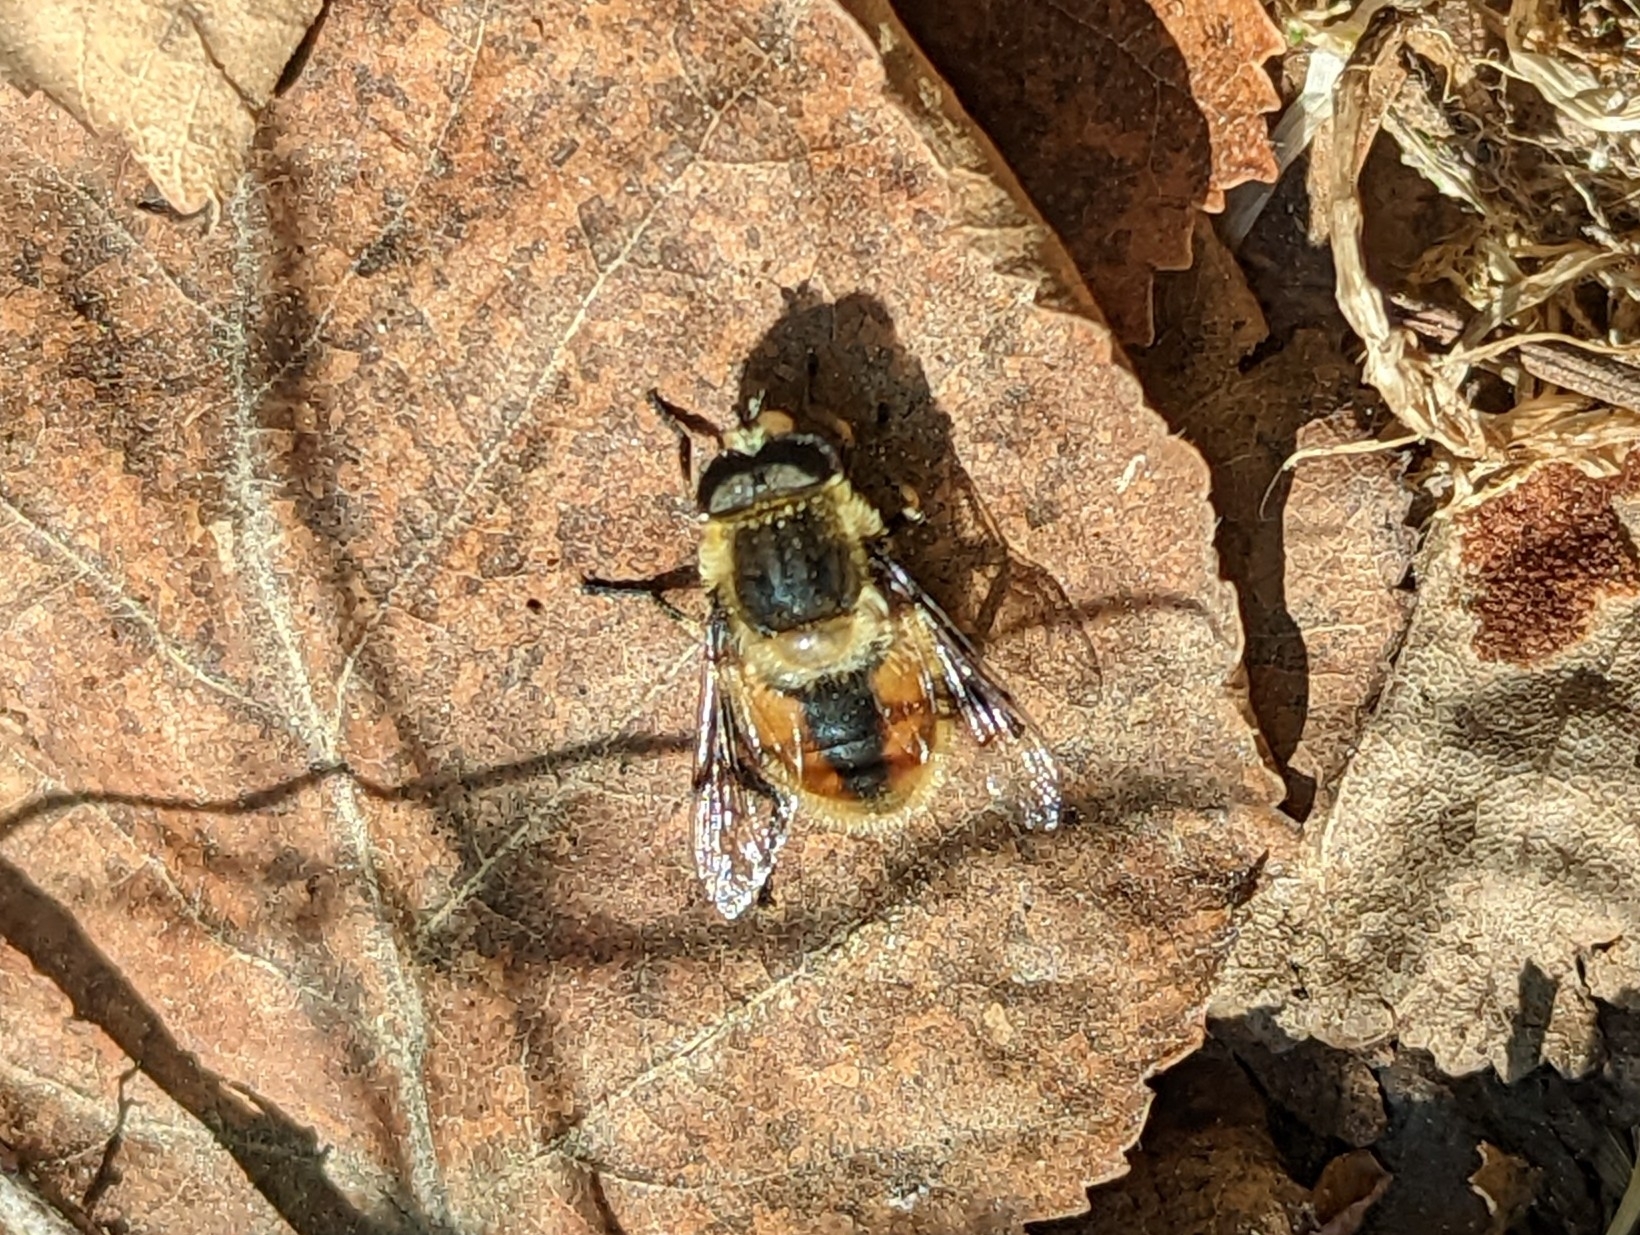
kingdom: Animalia
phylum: Arthropoda
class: Insecta
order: Diptera
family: Syrphidae
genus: Eristalis
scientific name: Eristalis anthophorina
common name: Orange-spotted drone fly
